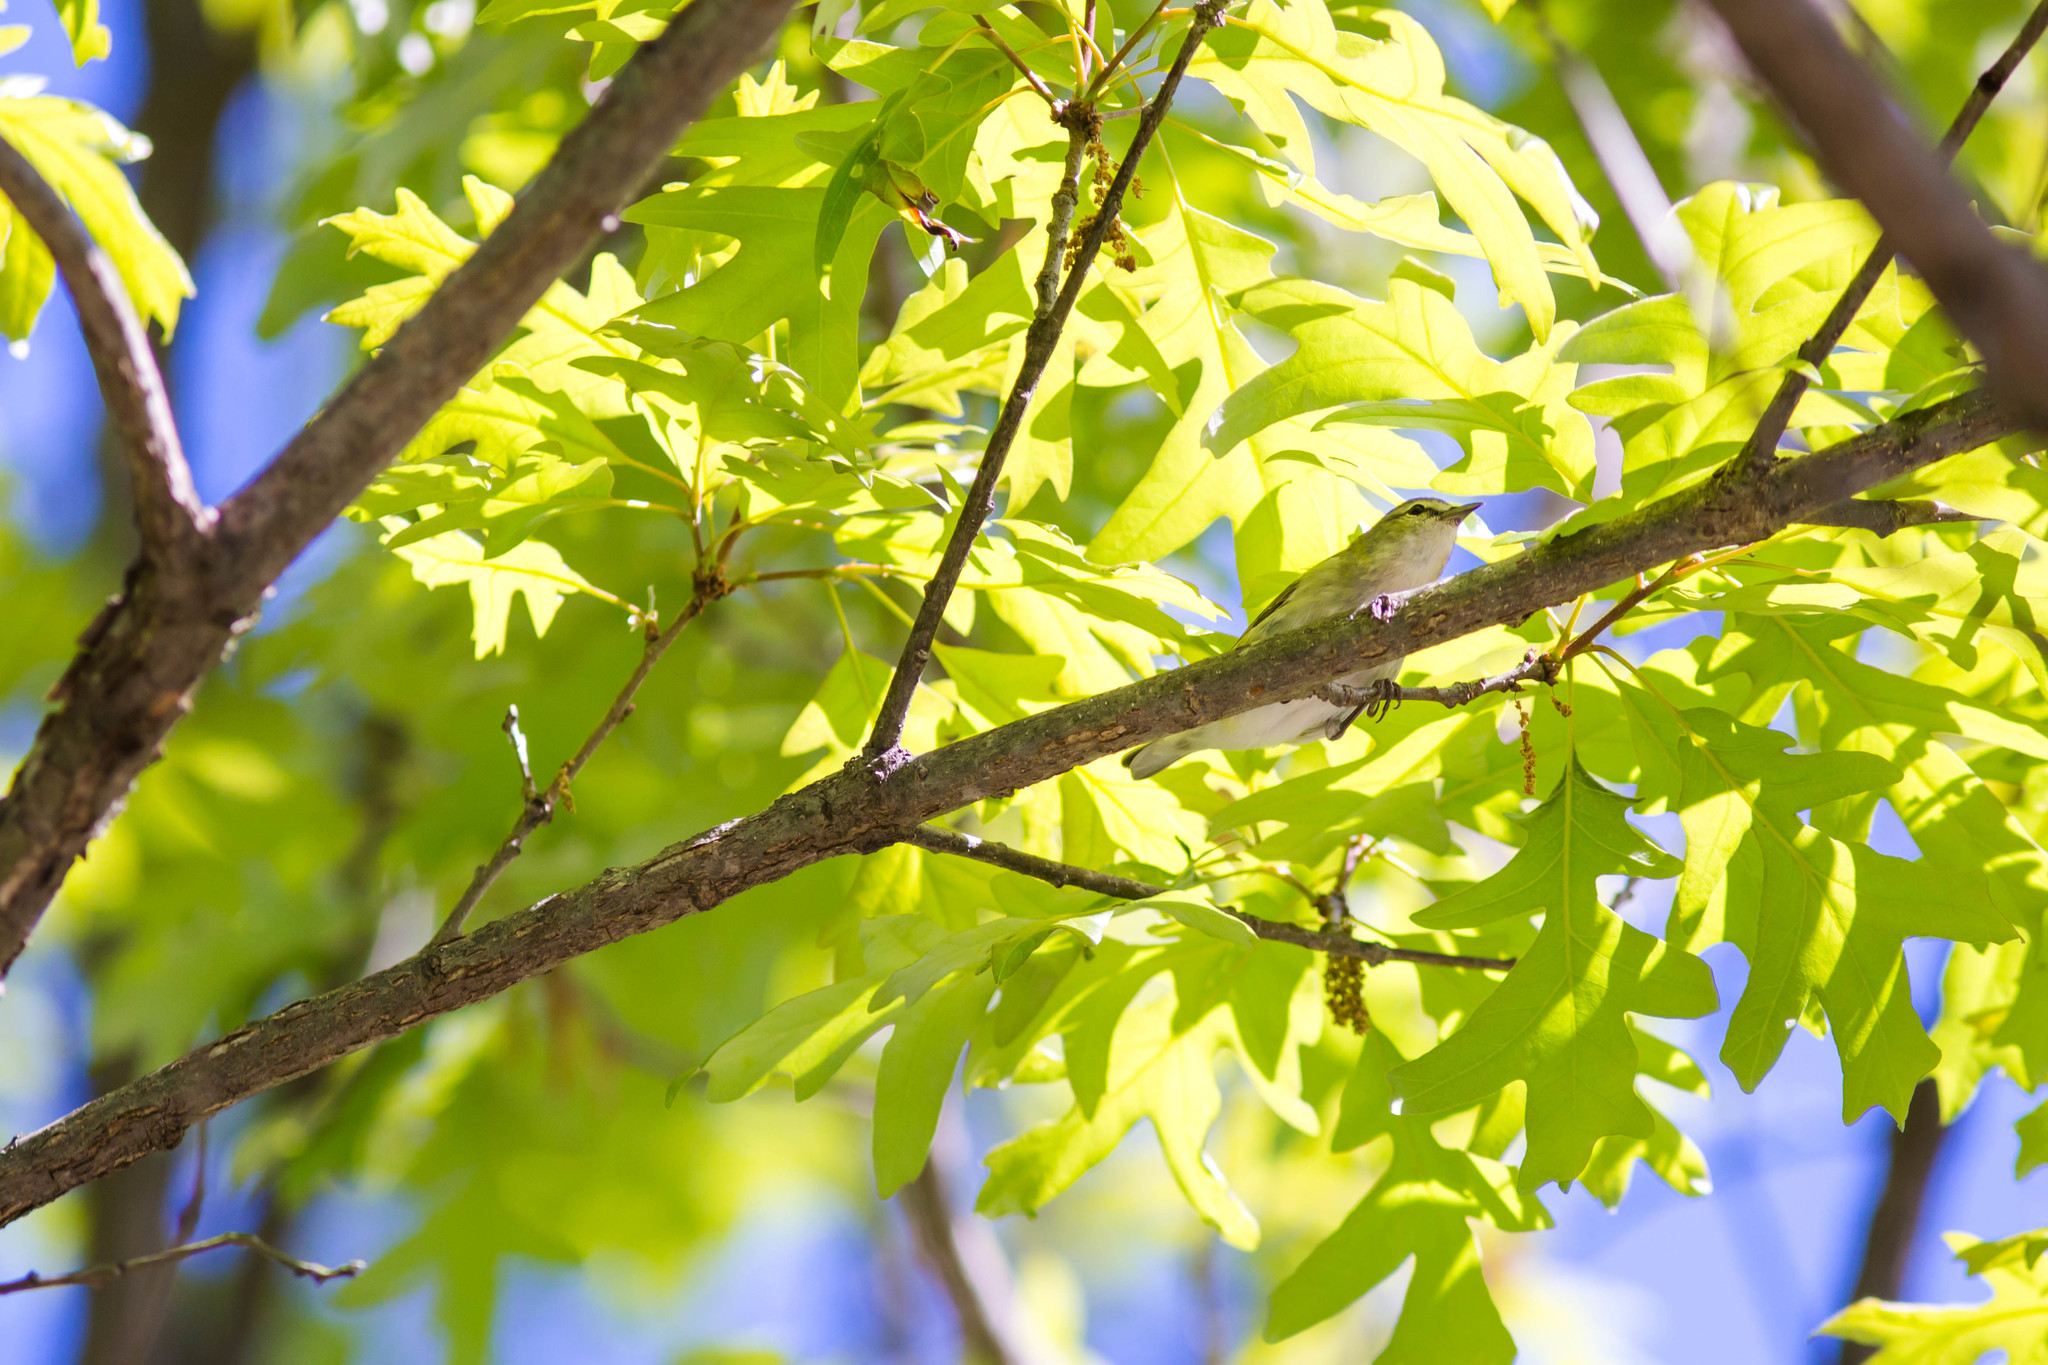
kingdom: Animalia
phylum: Chordata
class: Aves
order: Passeriformes
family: Parulidae
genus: Leiothlypis
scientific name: Leiothlypis peregrina
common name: Tennessee warbler
